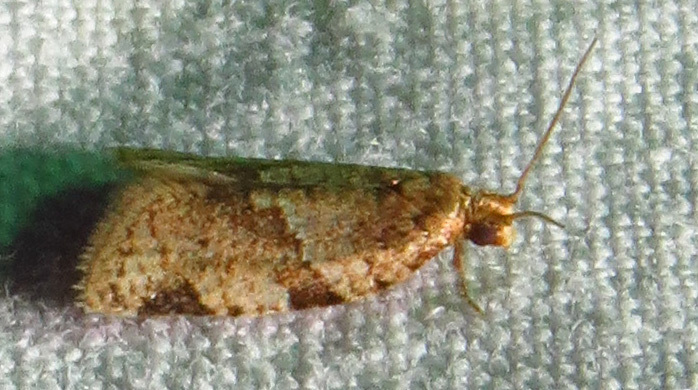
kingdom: Animalia
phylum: Arthropoda
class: Insecta
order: Lepidoptera
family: Tortricidae
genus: Clepsis
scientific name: Clepsis peritana
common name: Garden tortrix
